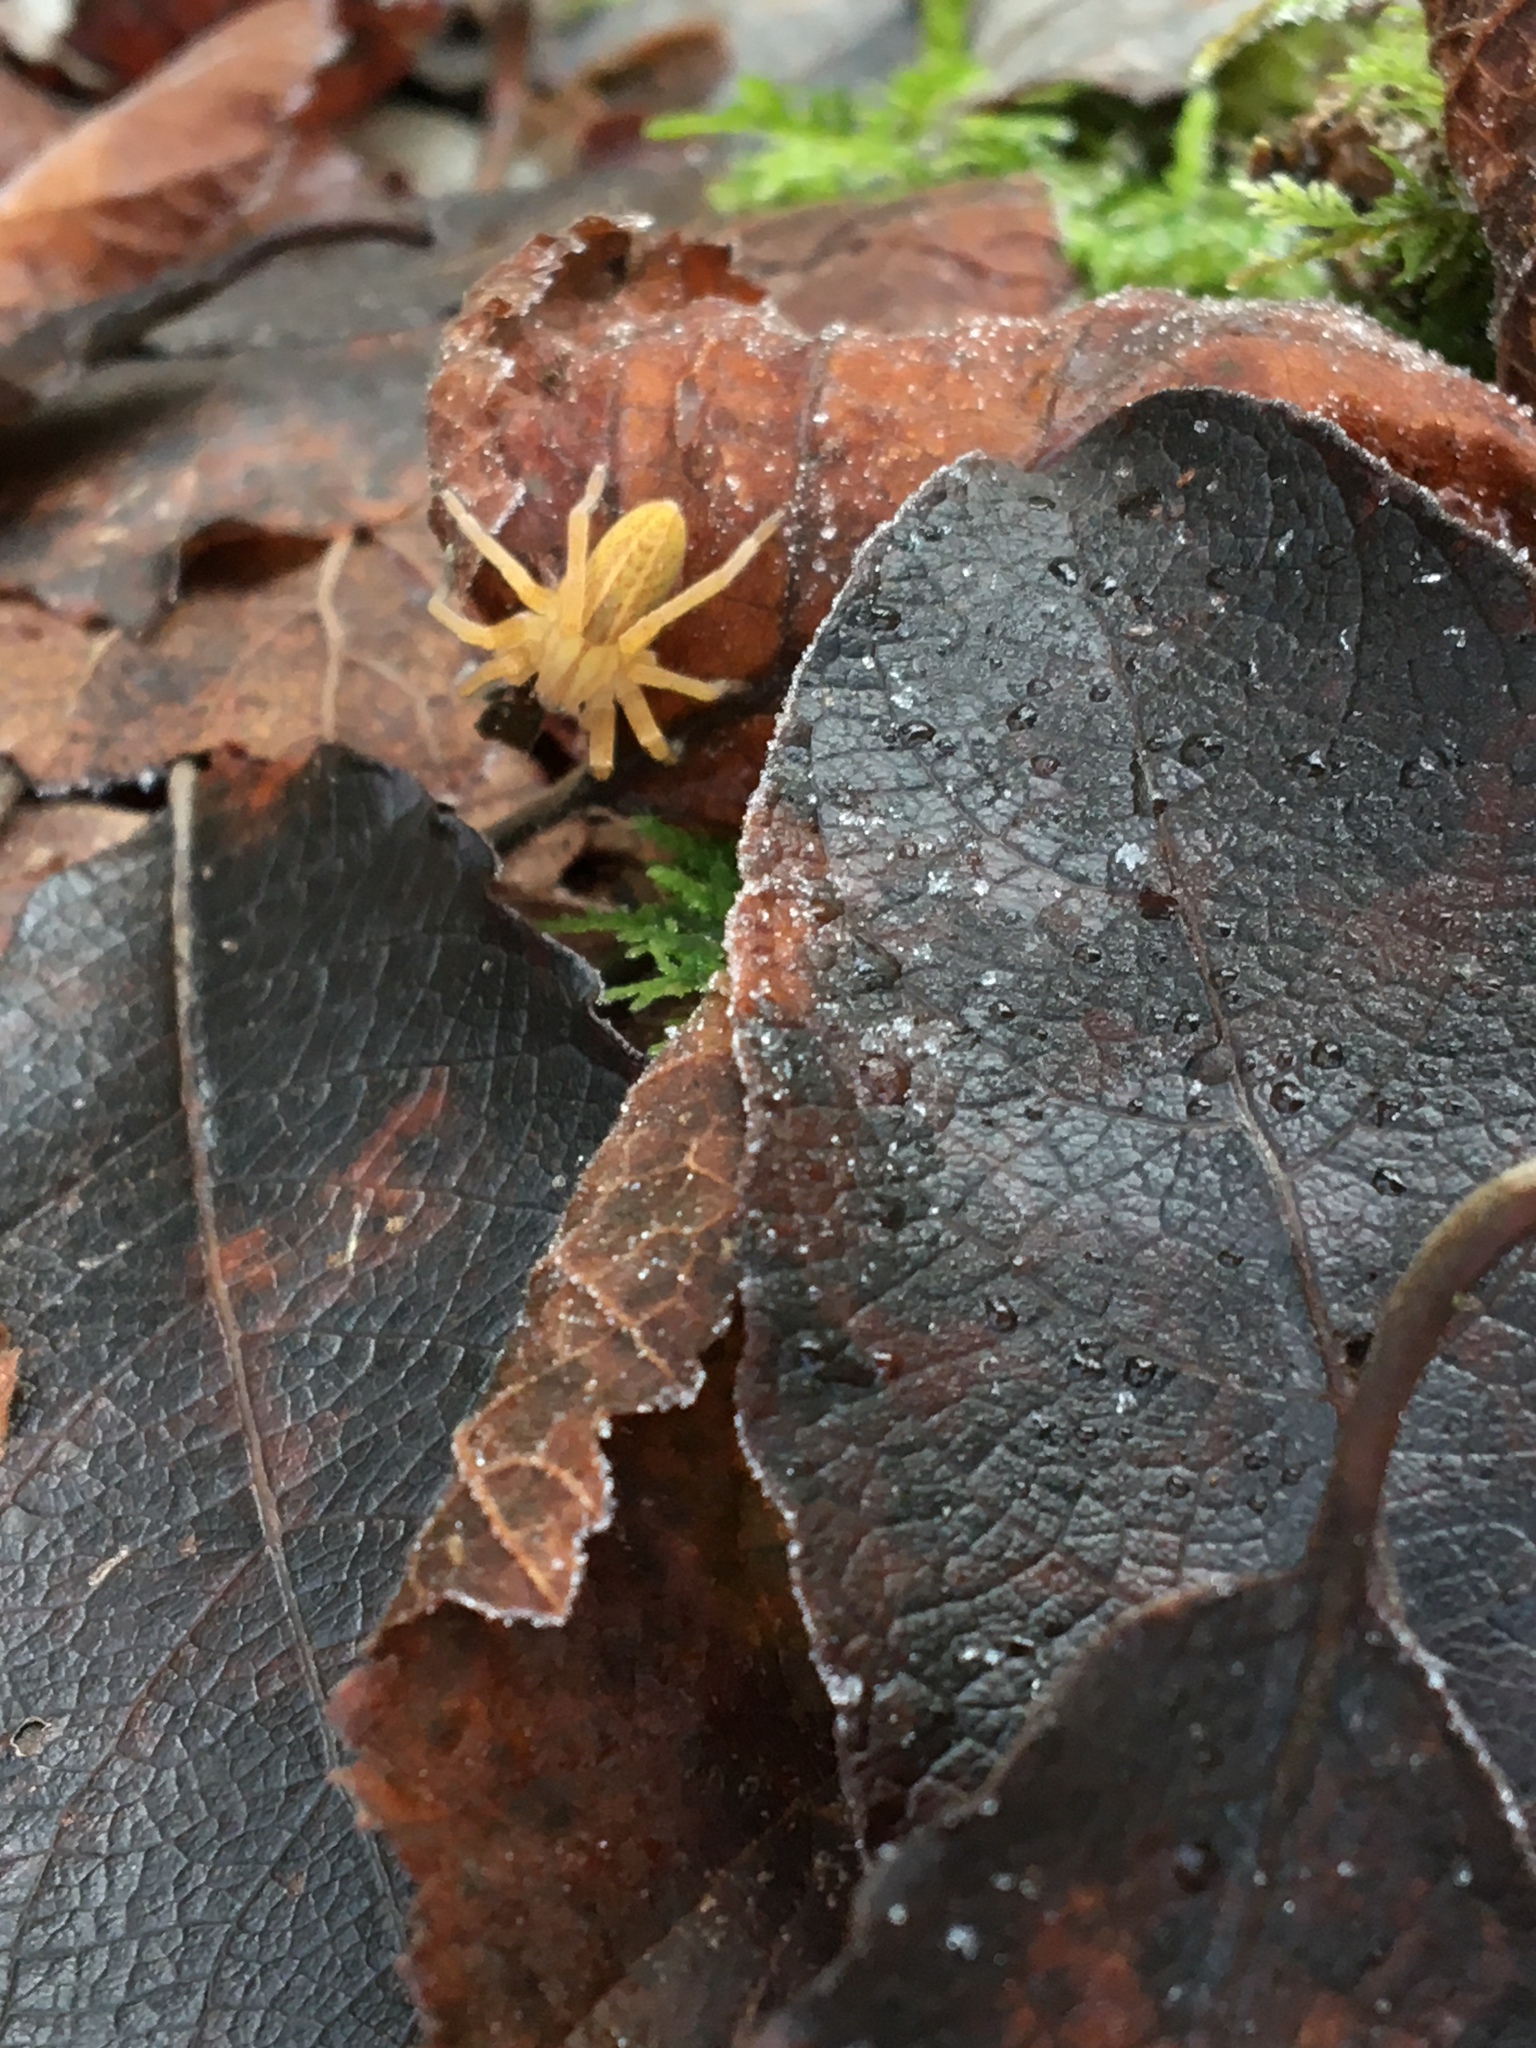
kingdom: Animalia
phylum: Arthropoda
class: Arachnida
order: Araneae
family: Sparassidae
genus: Micrommata
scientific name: Micrommata virescens
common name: Green spider
